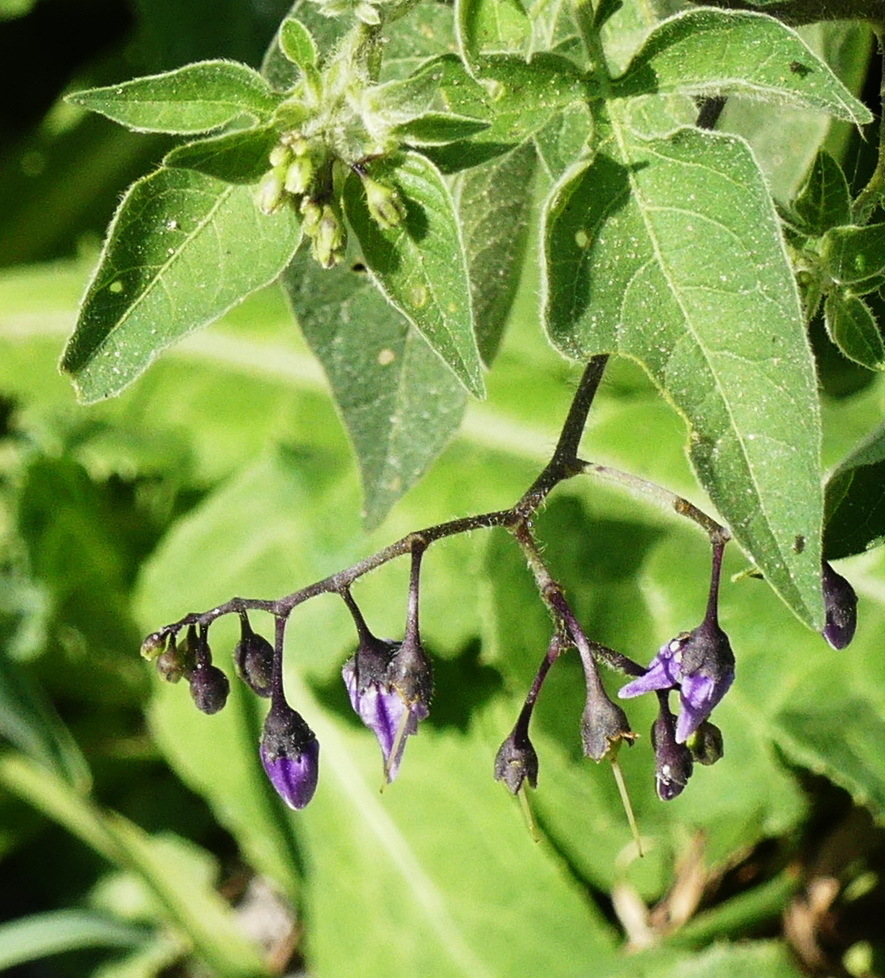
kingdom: Plantae
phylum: Tracheophyta
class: Magnoliopsida
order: Solanales
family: Solanaceae
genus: Solanum
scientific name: Solanum dulcamara
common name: Climbing nightshade
